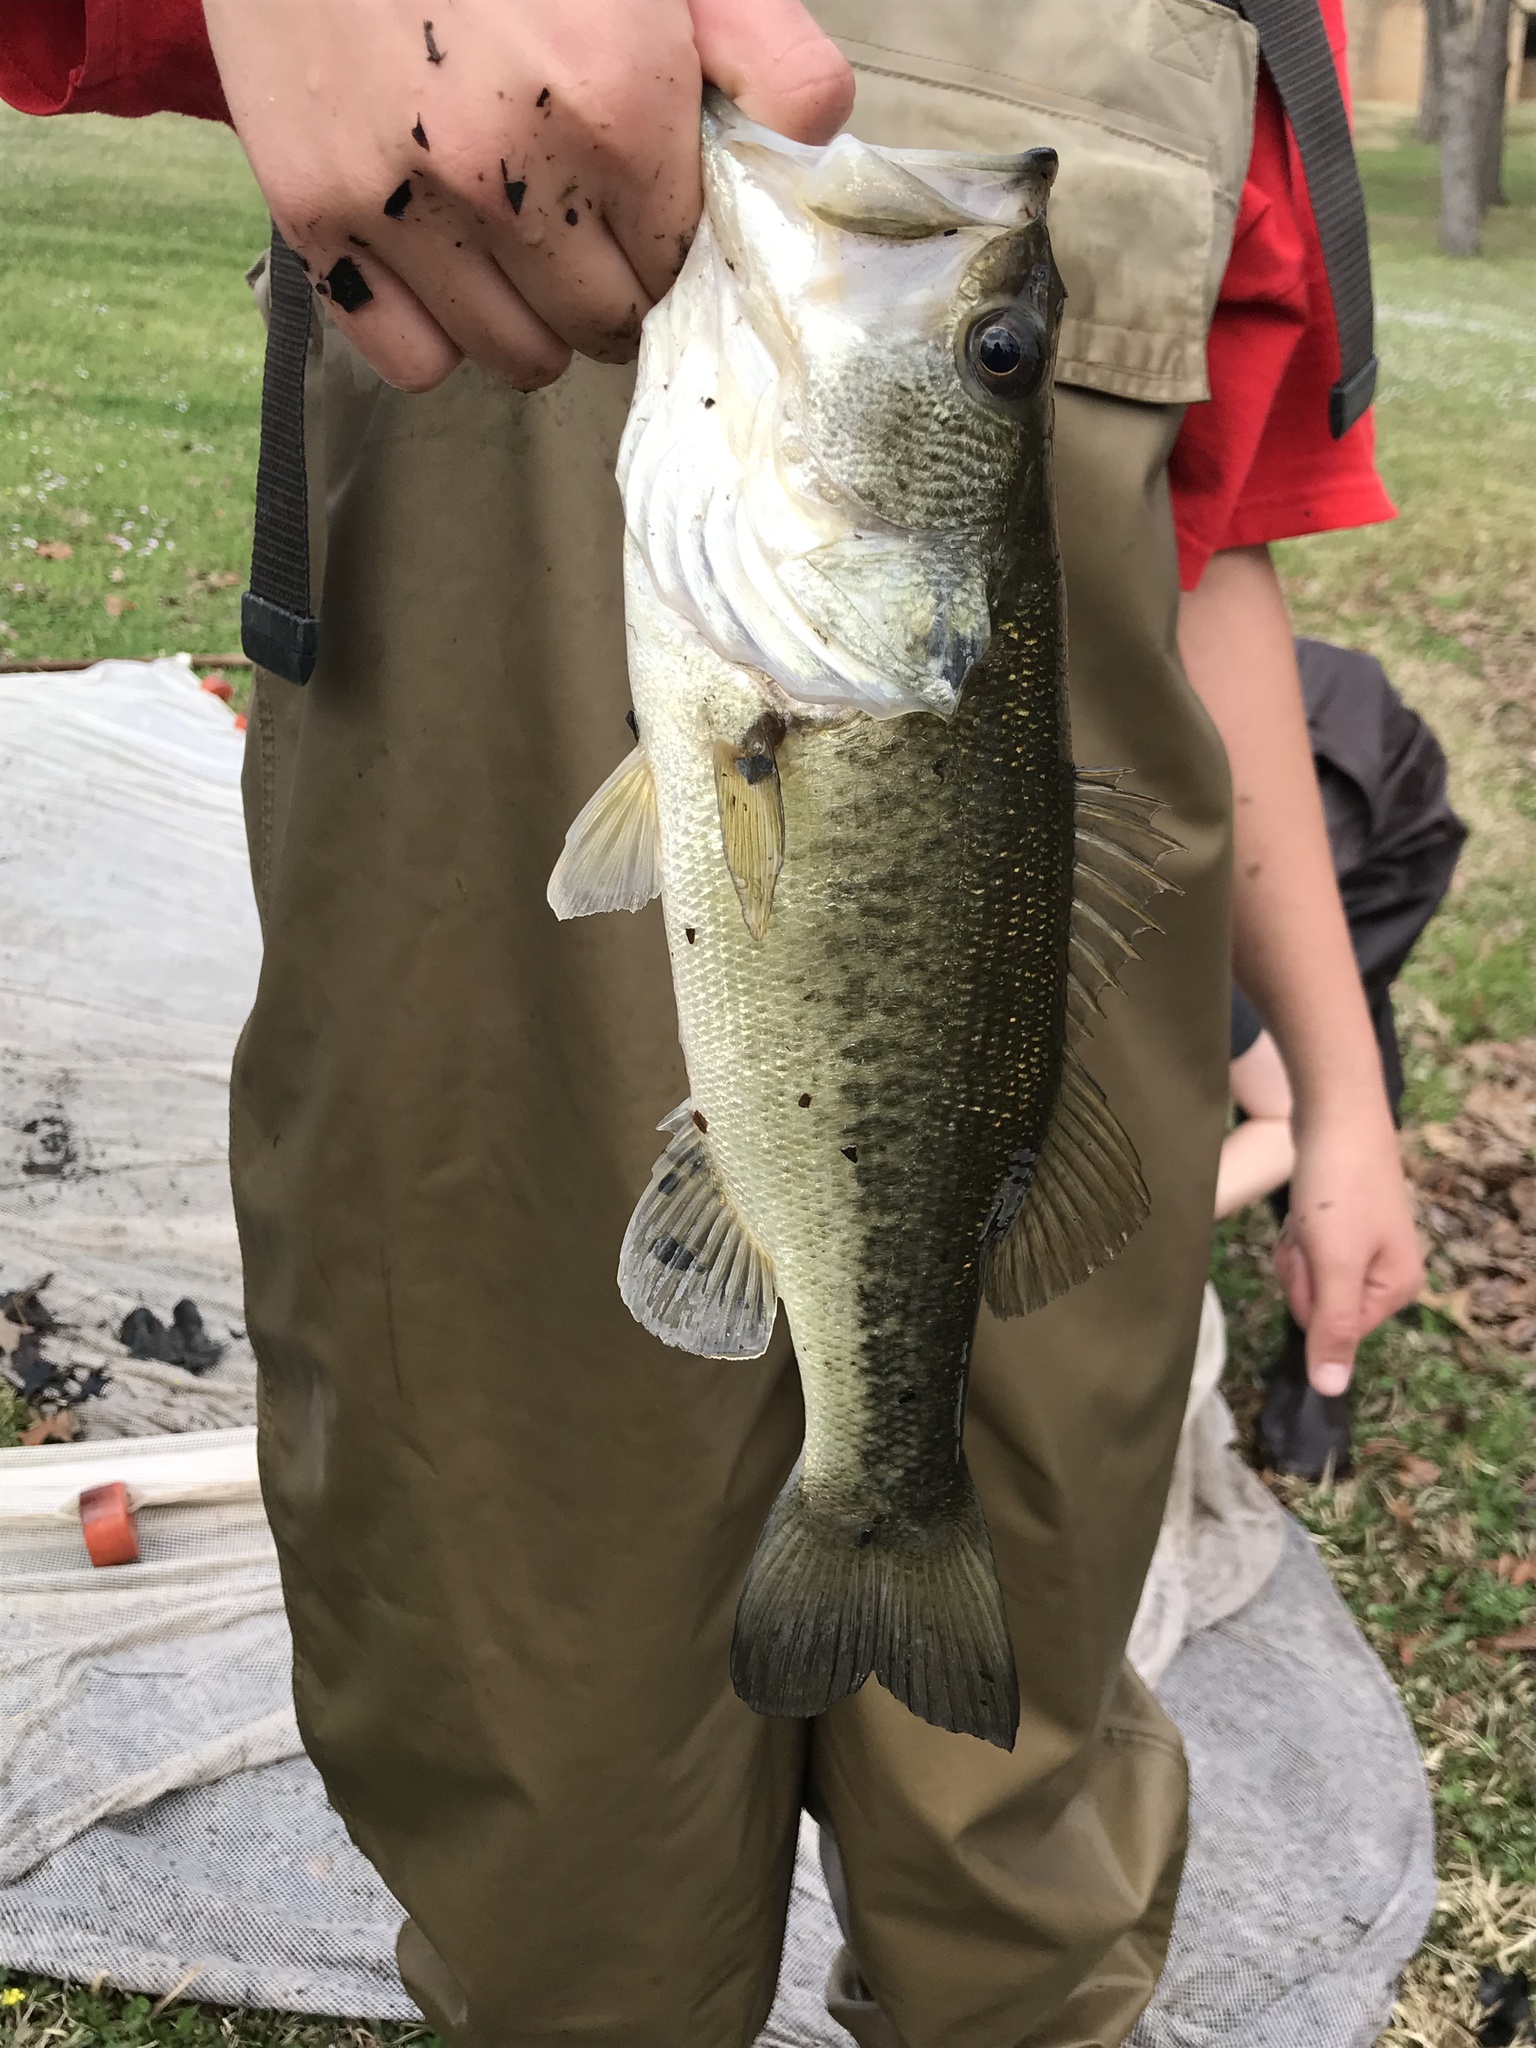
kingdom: Animalia
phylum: Chordata
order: Perciformes
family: Centrarchidae
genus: Micropterus
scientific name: Micropterus
